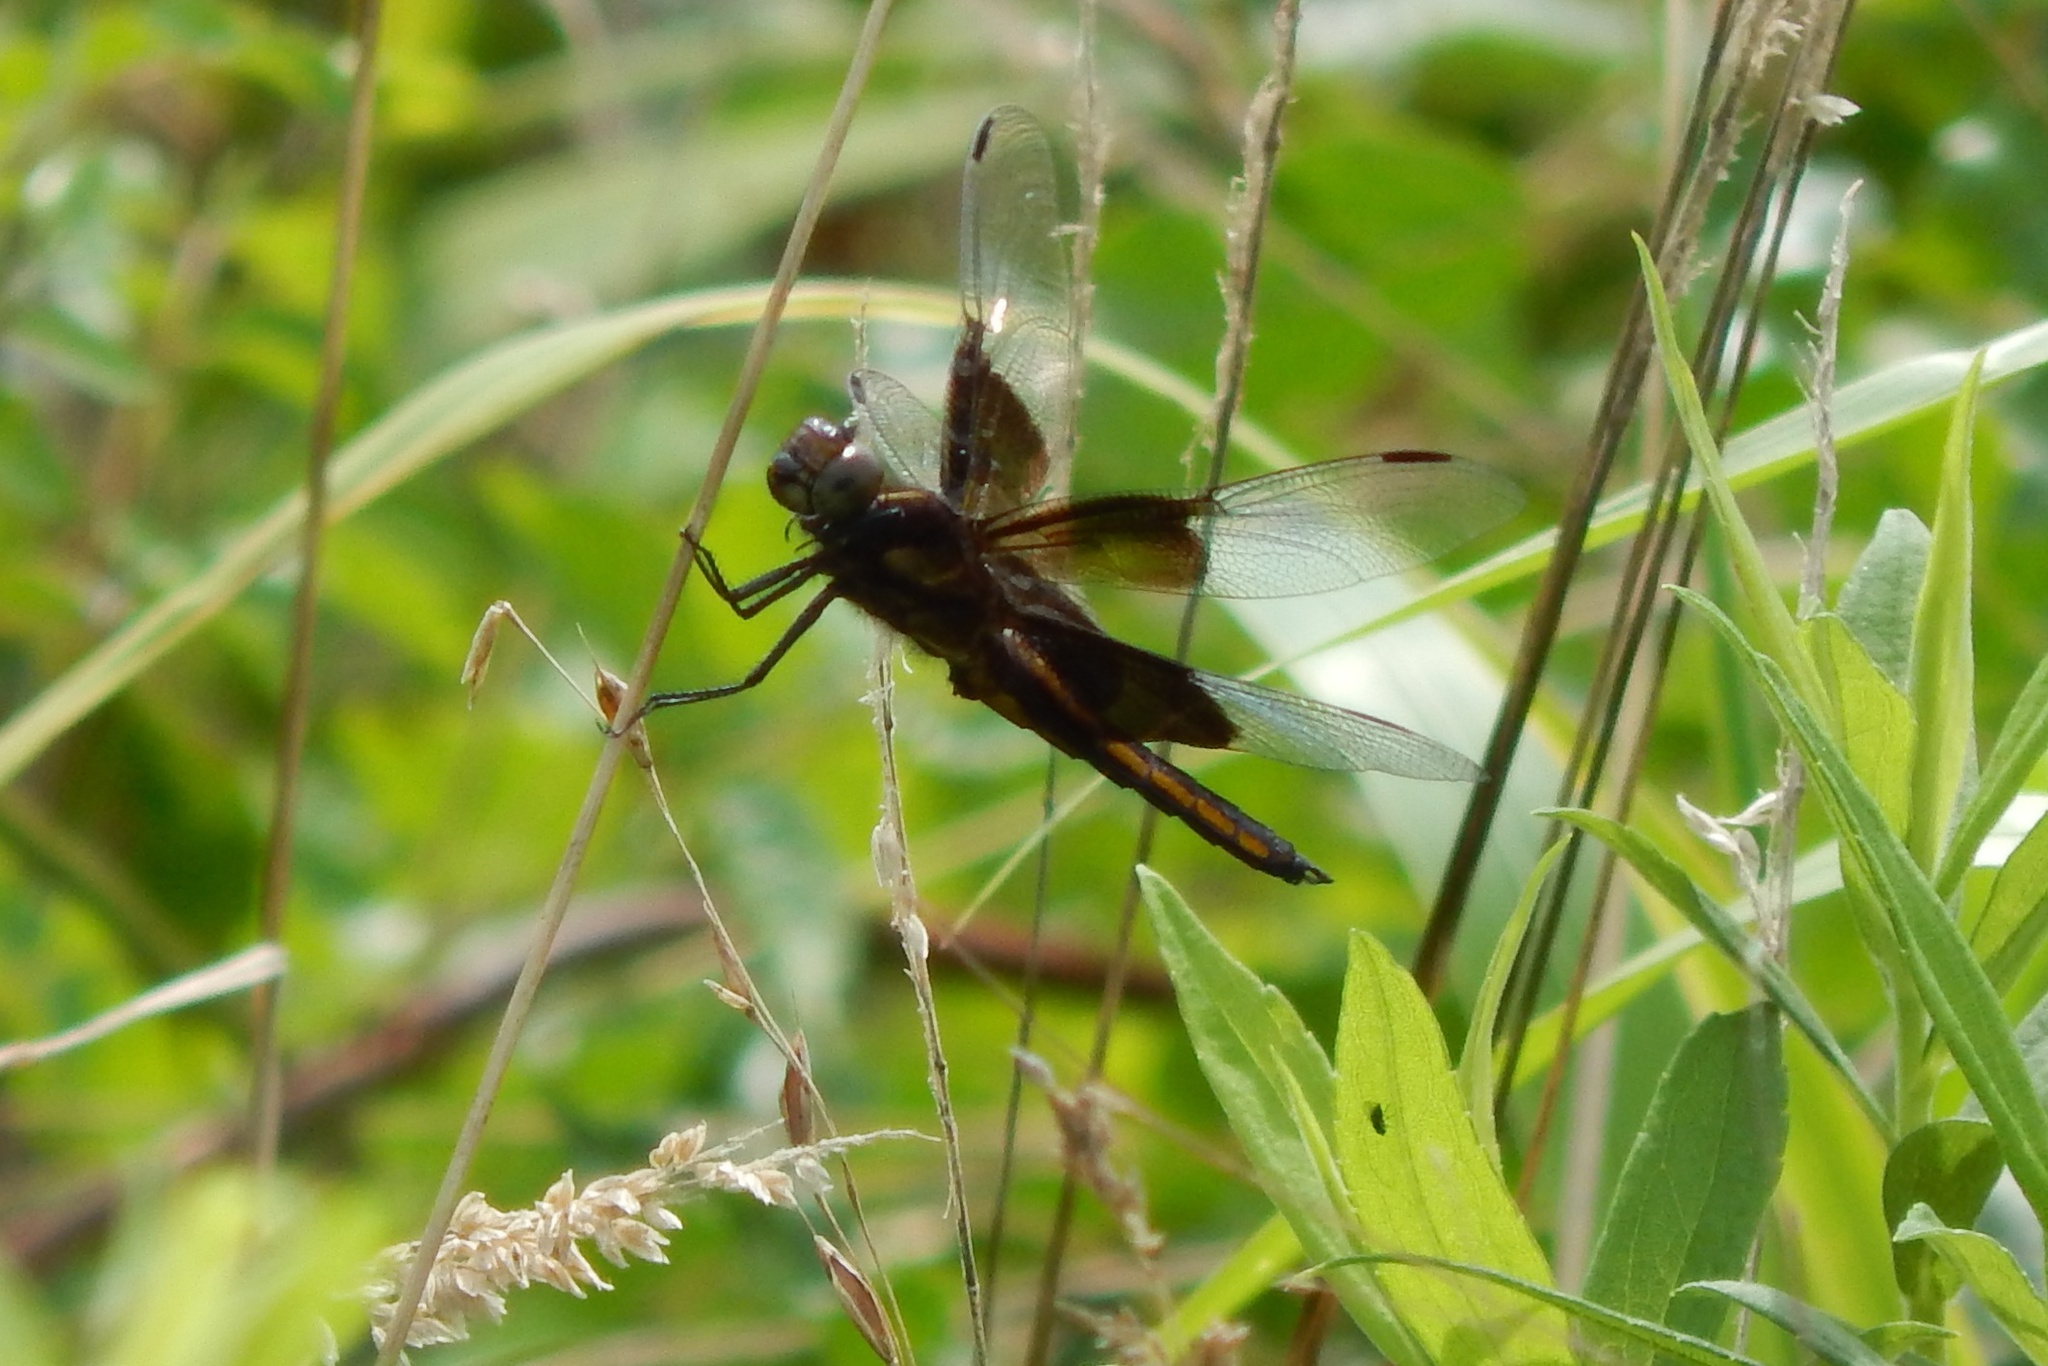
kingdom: Animalia
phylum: Arthropoda
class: Insecta
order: Odonata
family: Libellulidae
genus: Libellula
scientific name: Libellula luctuosa
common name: Widow skimmer
